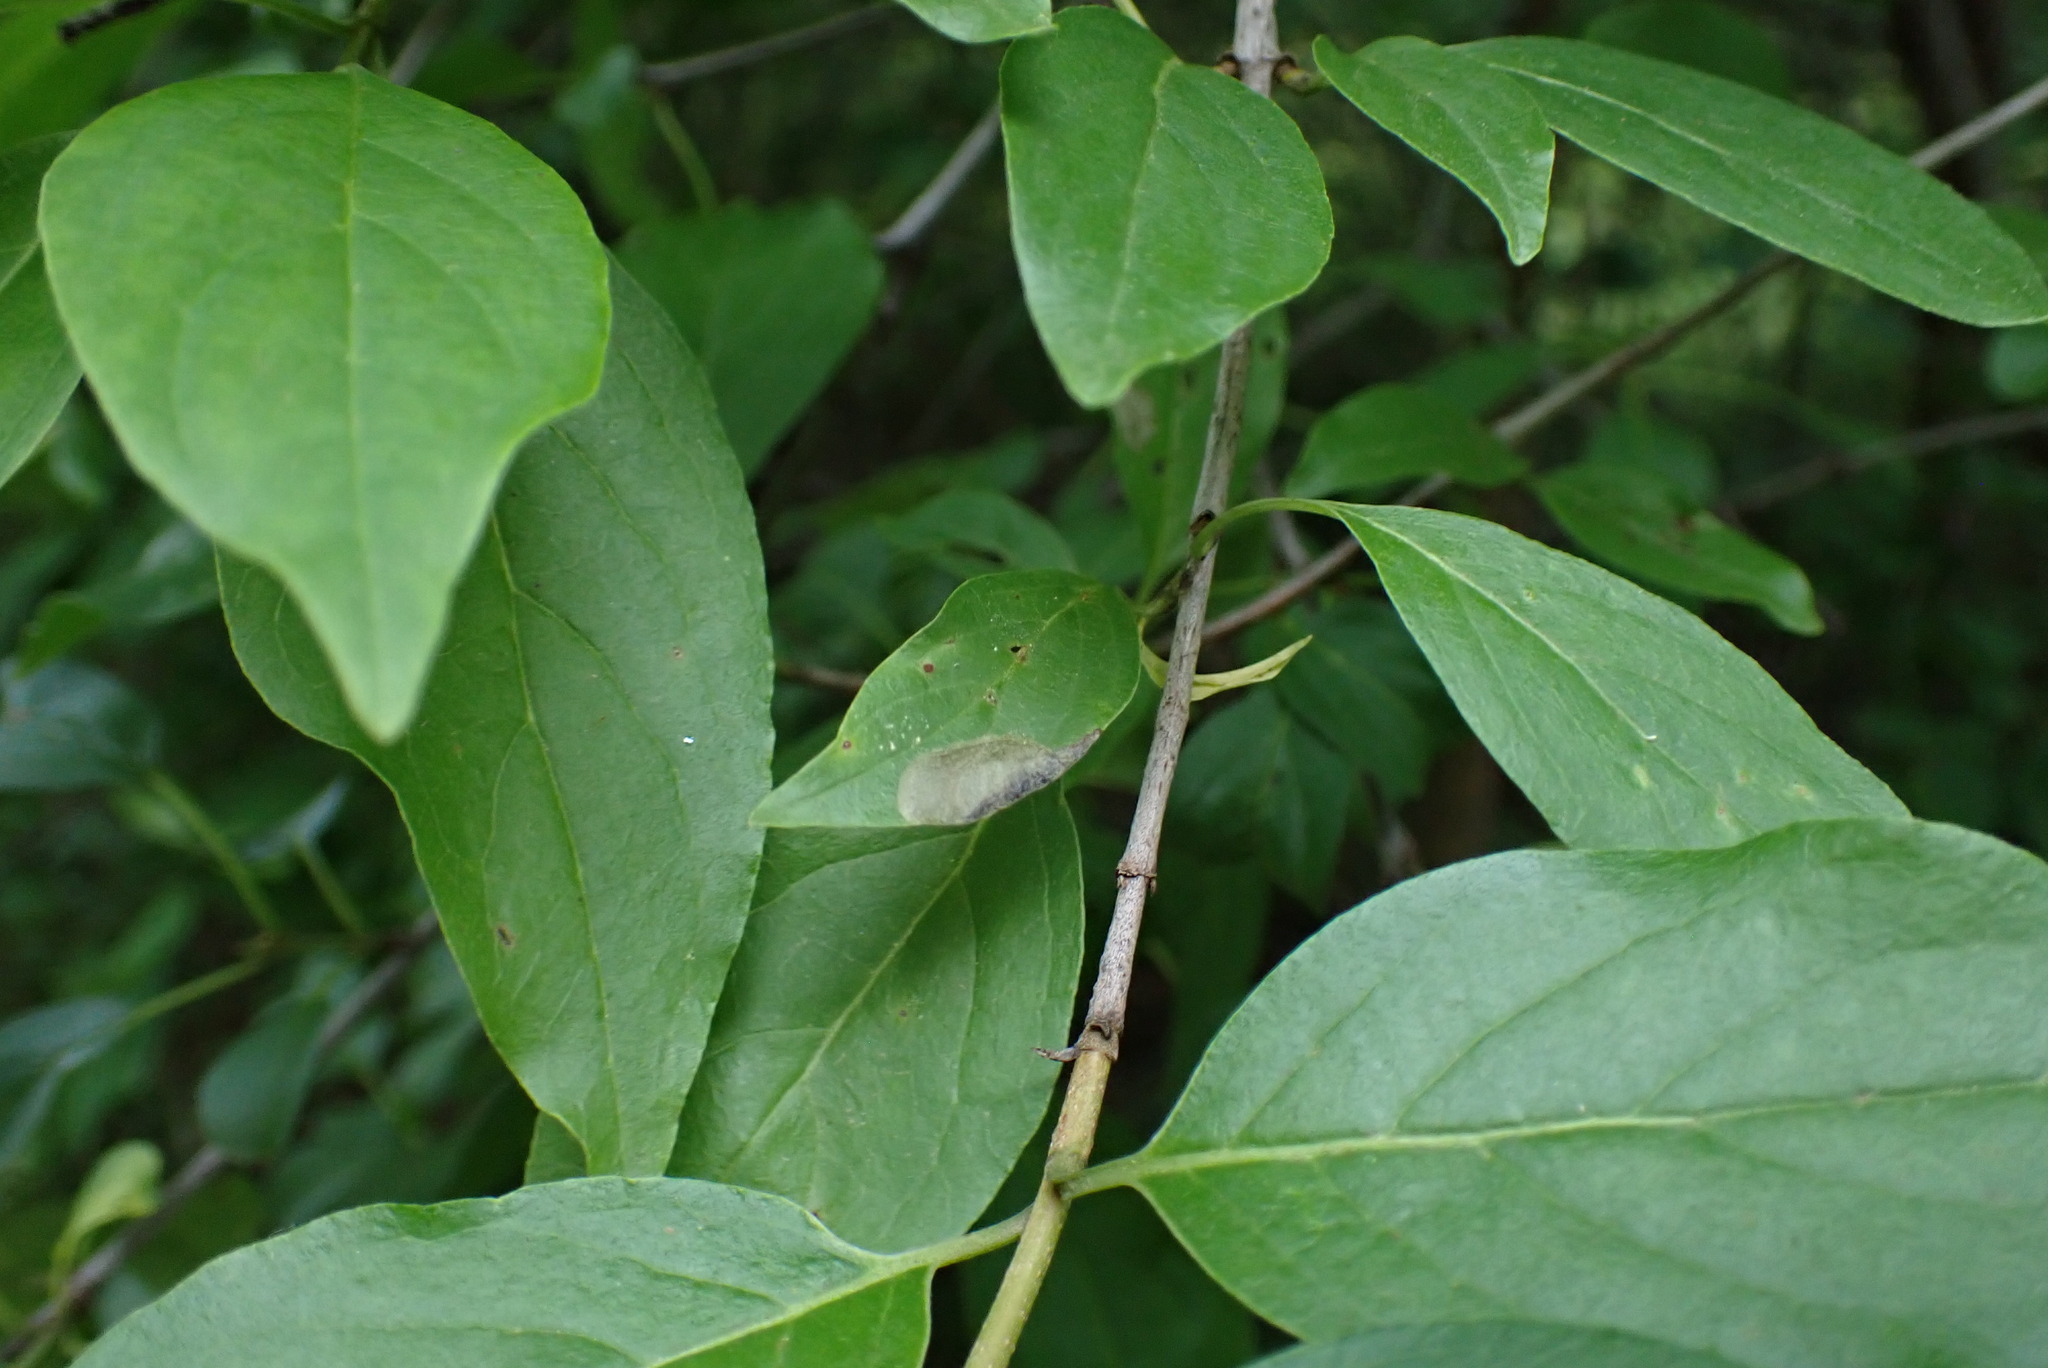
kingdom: Animalia
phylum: Arthropoda
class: Insecta
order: Lepidoptera
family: Heliozelidae
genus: Antispila
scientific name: Antispila freemani
